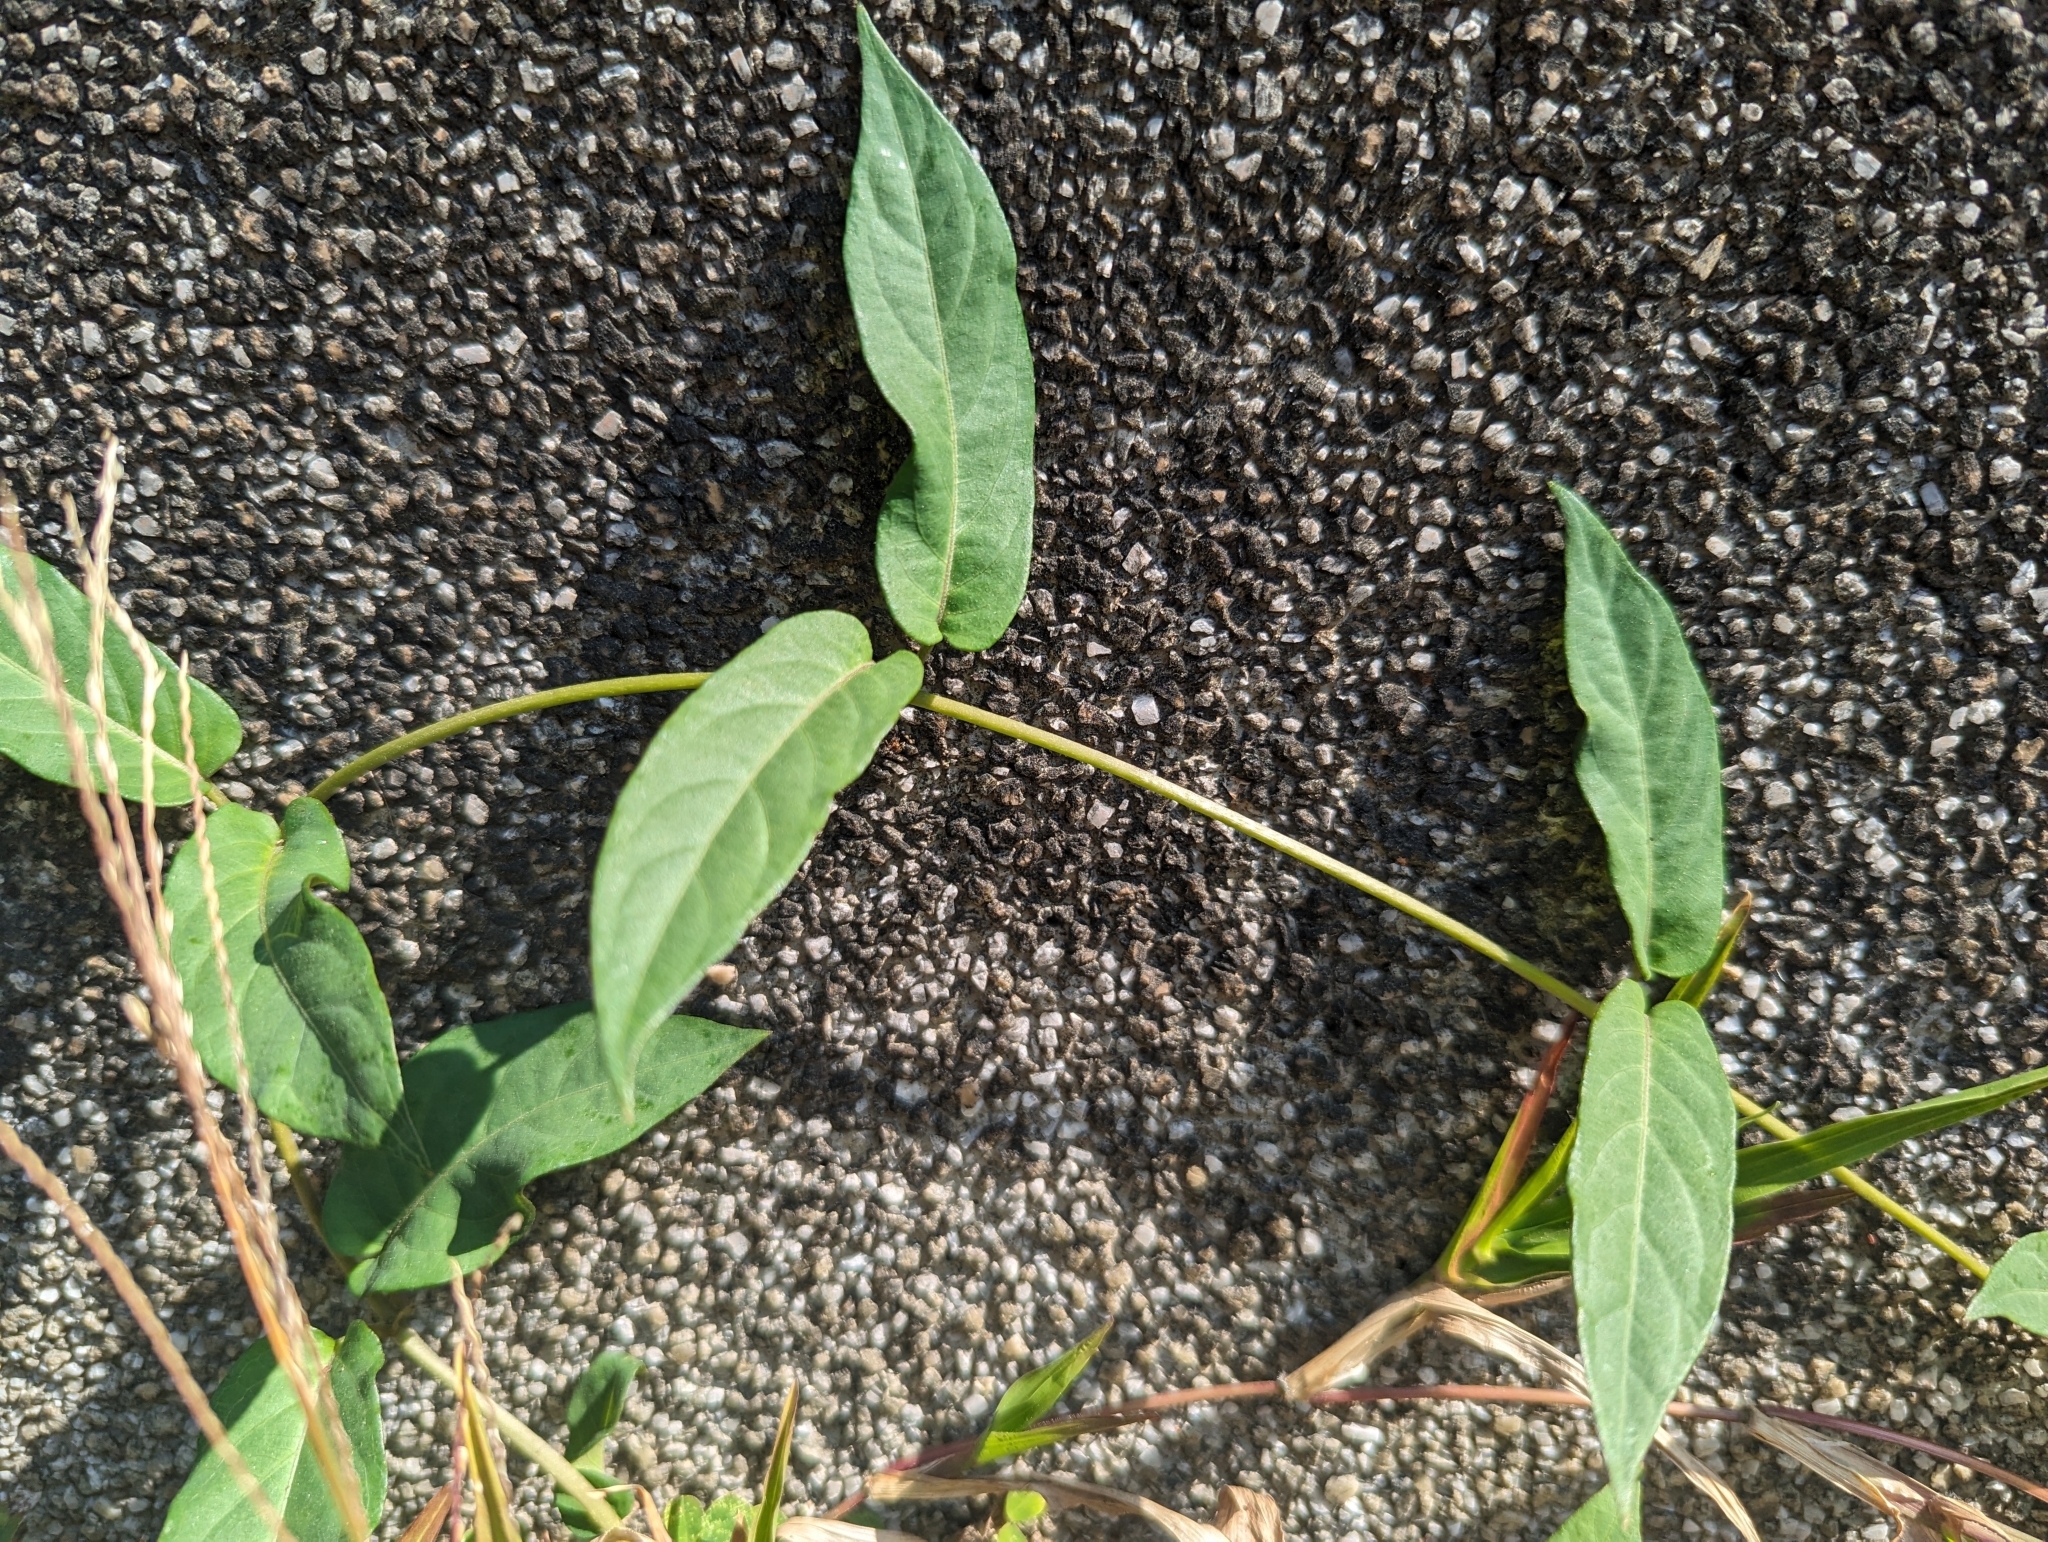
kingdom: Plantae
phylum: Tracheophyta
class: Magnoliopsida
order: Gentianales
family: Rubiaceae
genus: Paederia
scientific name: Paederia foetida
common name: Stinkvine
